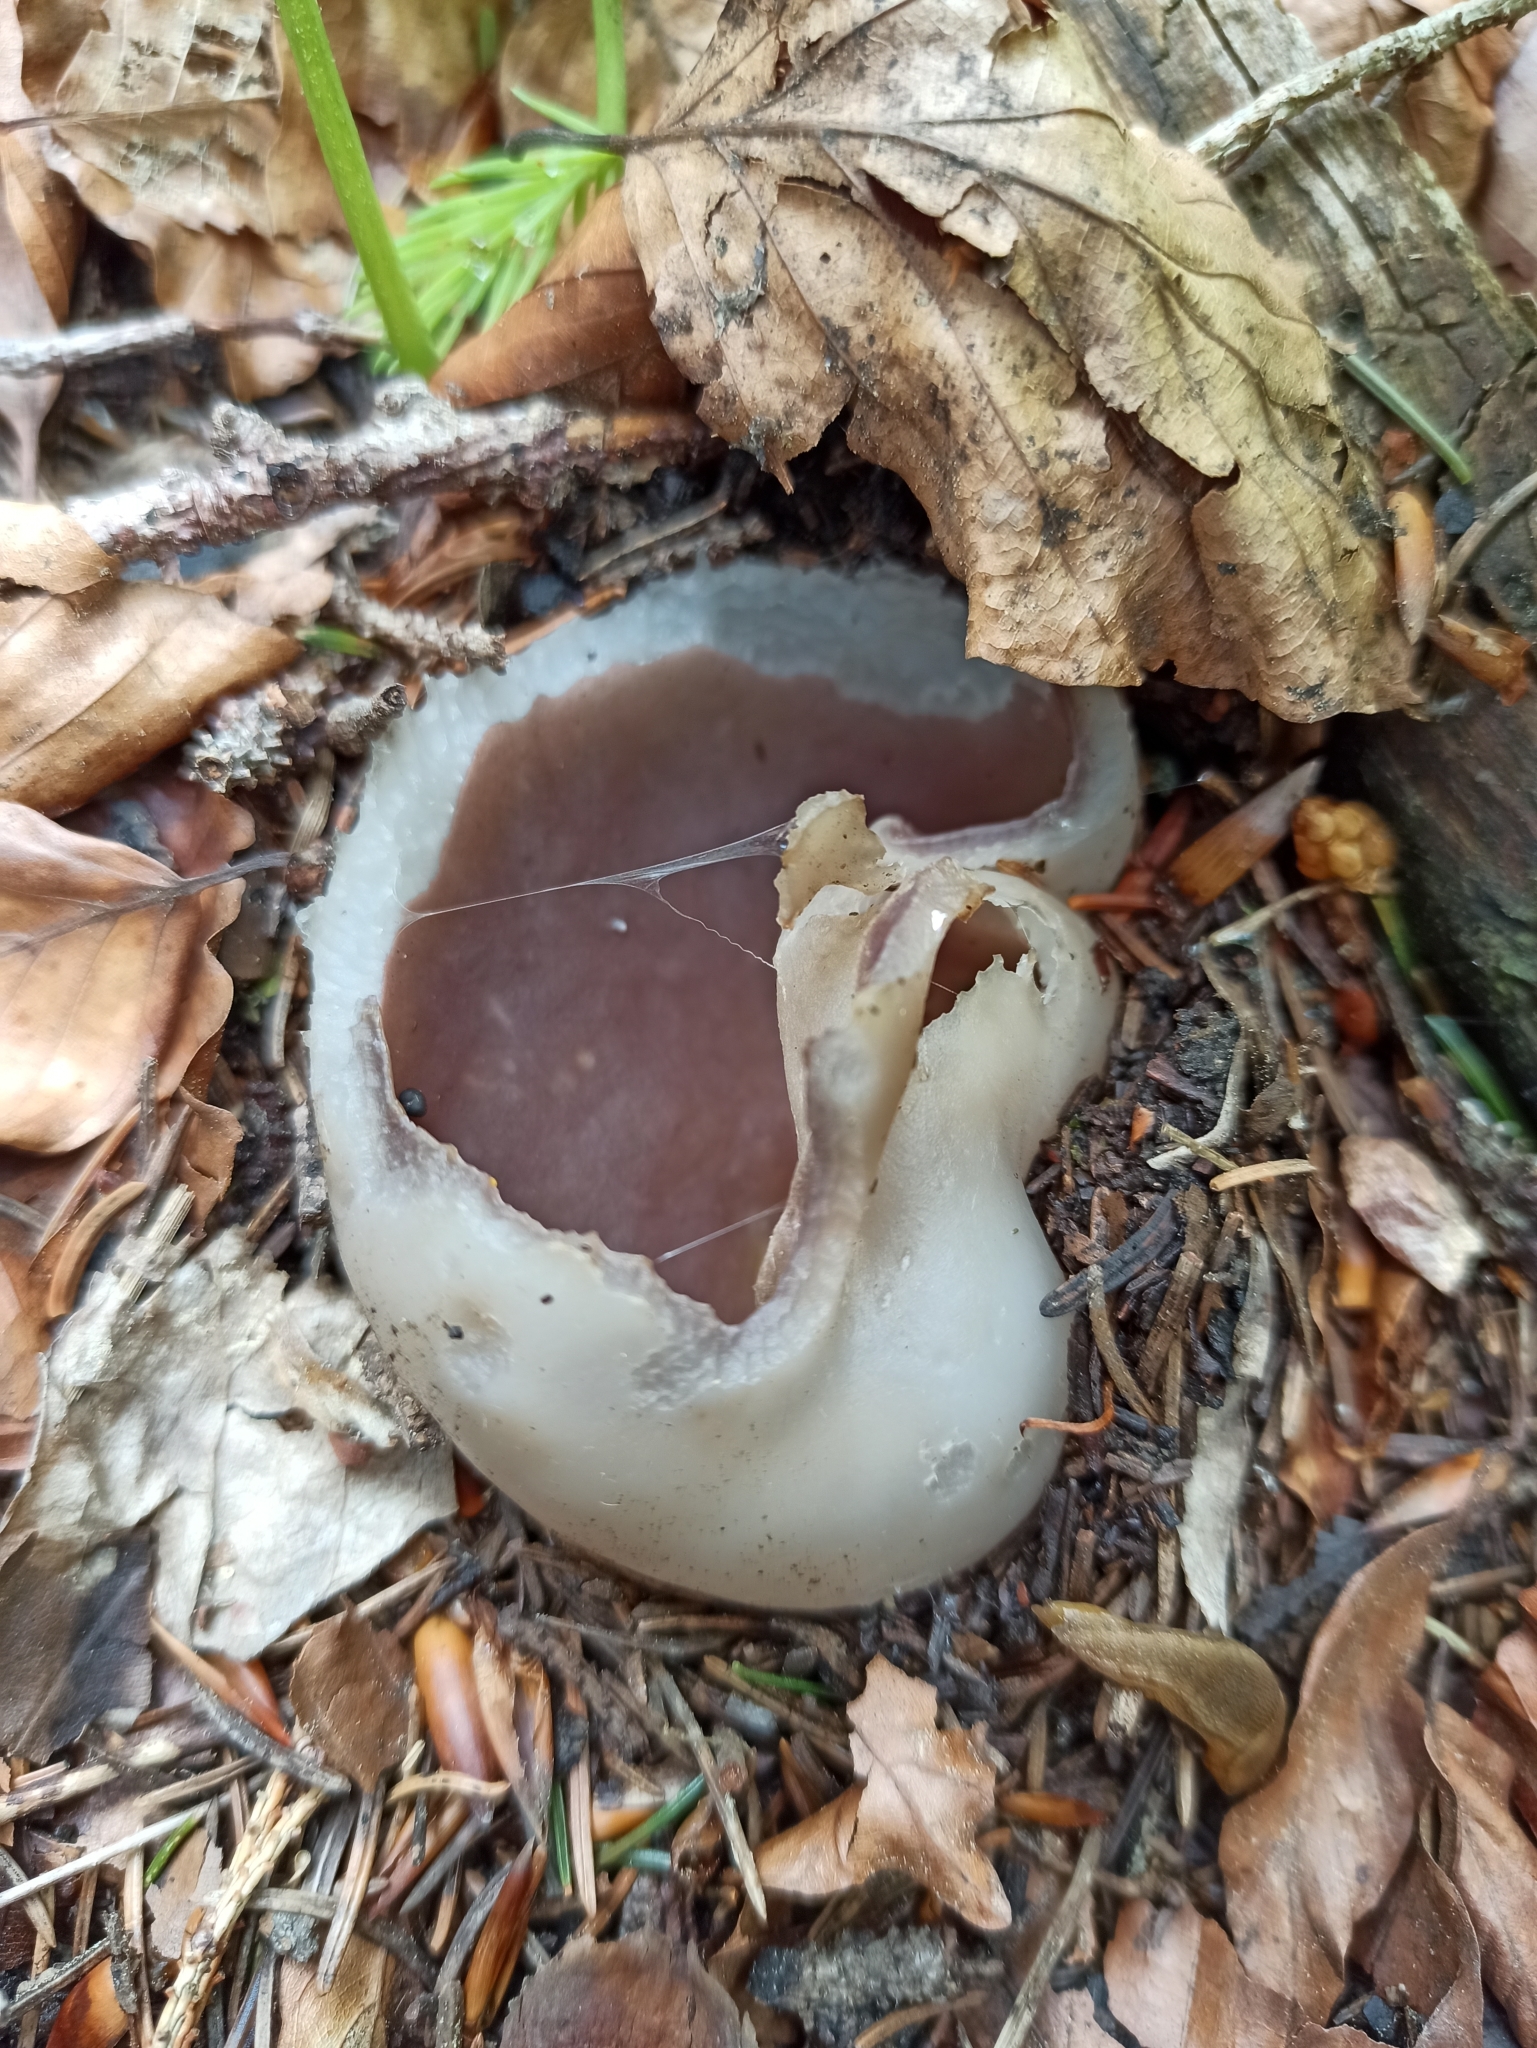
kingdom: Fungi
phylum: Ascomycota
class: Pezizomycetes
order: Pezizales
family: Pezizaceae
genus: Sarcosphaera
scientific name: Sarcosphaera coronaria
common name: Violet crowncup
